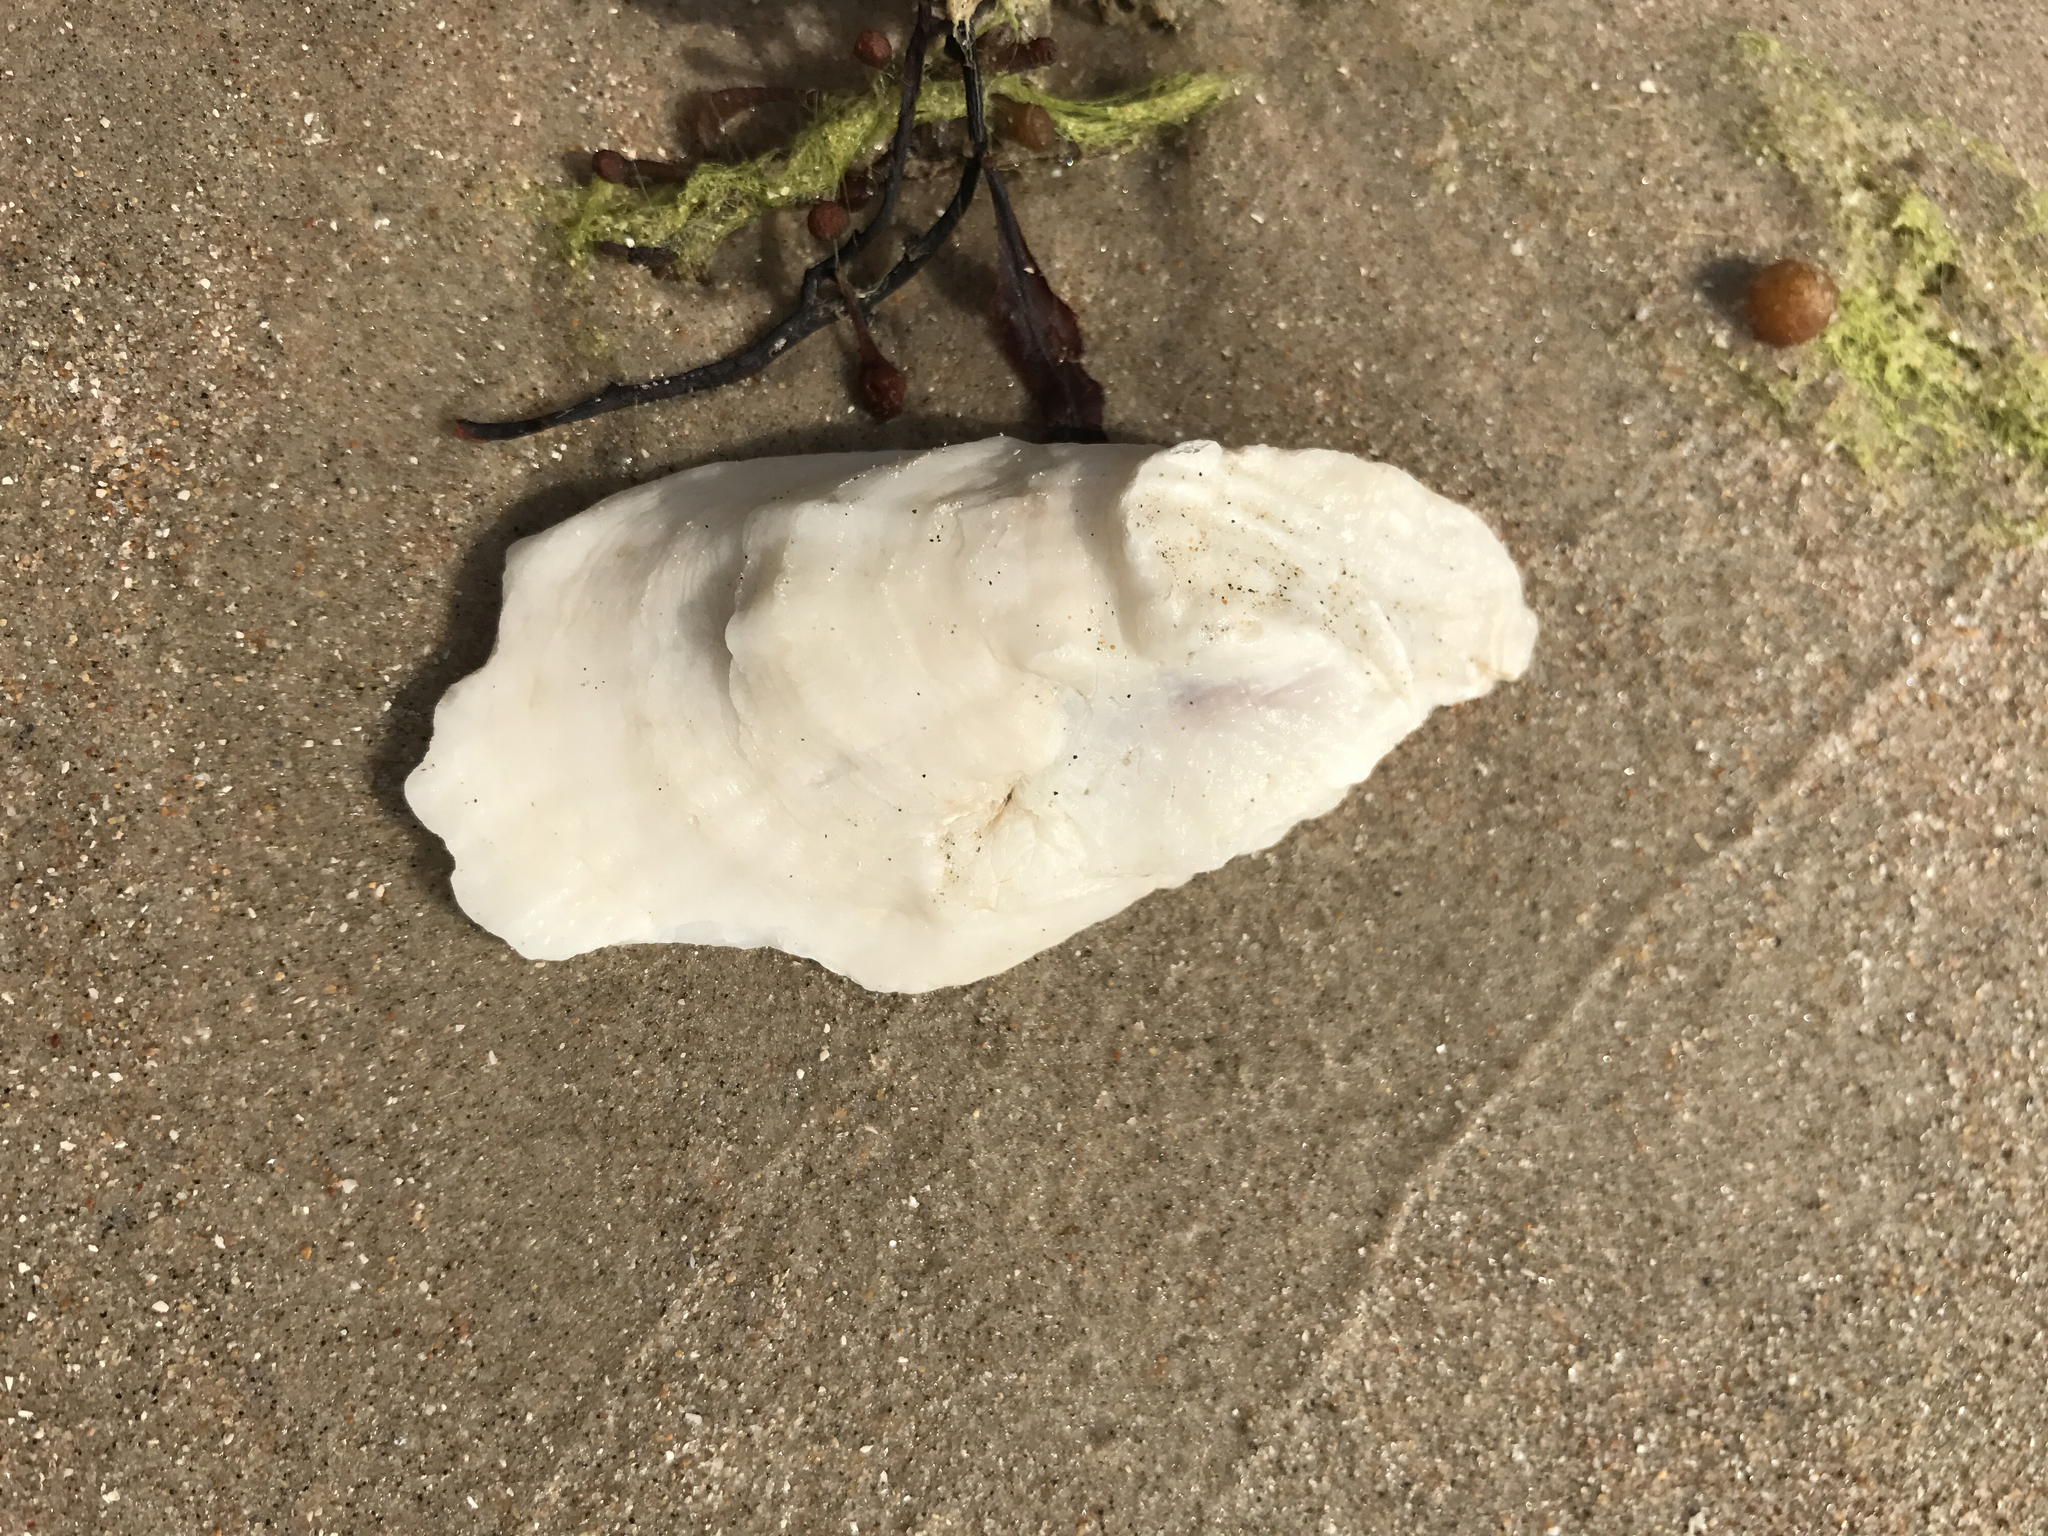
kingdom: Animalia
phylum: Mollusca
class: Bivalvia
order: Ostreida
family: Ostreidae
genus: Crassostrea
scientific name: Crassostrea virginica
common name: American oyster
